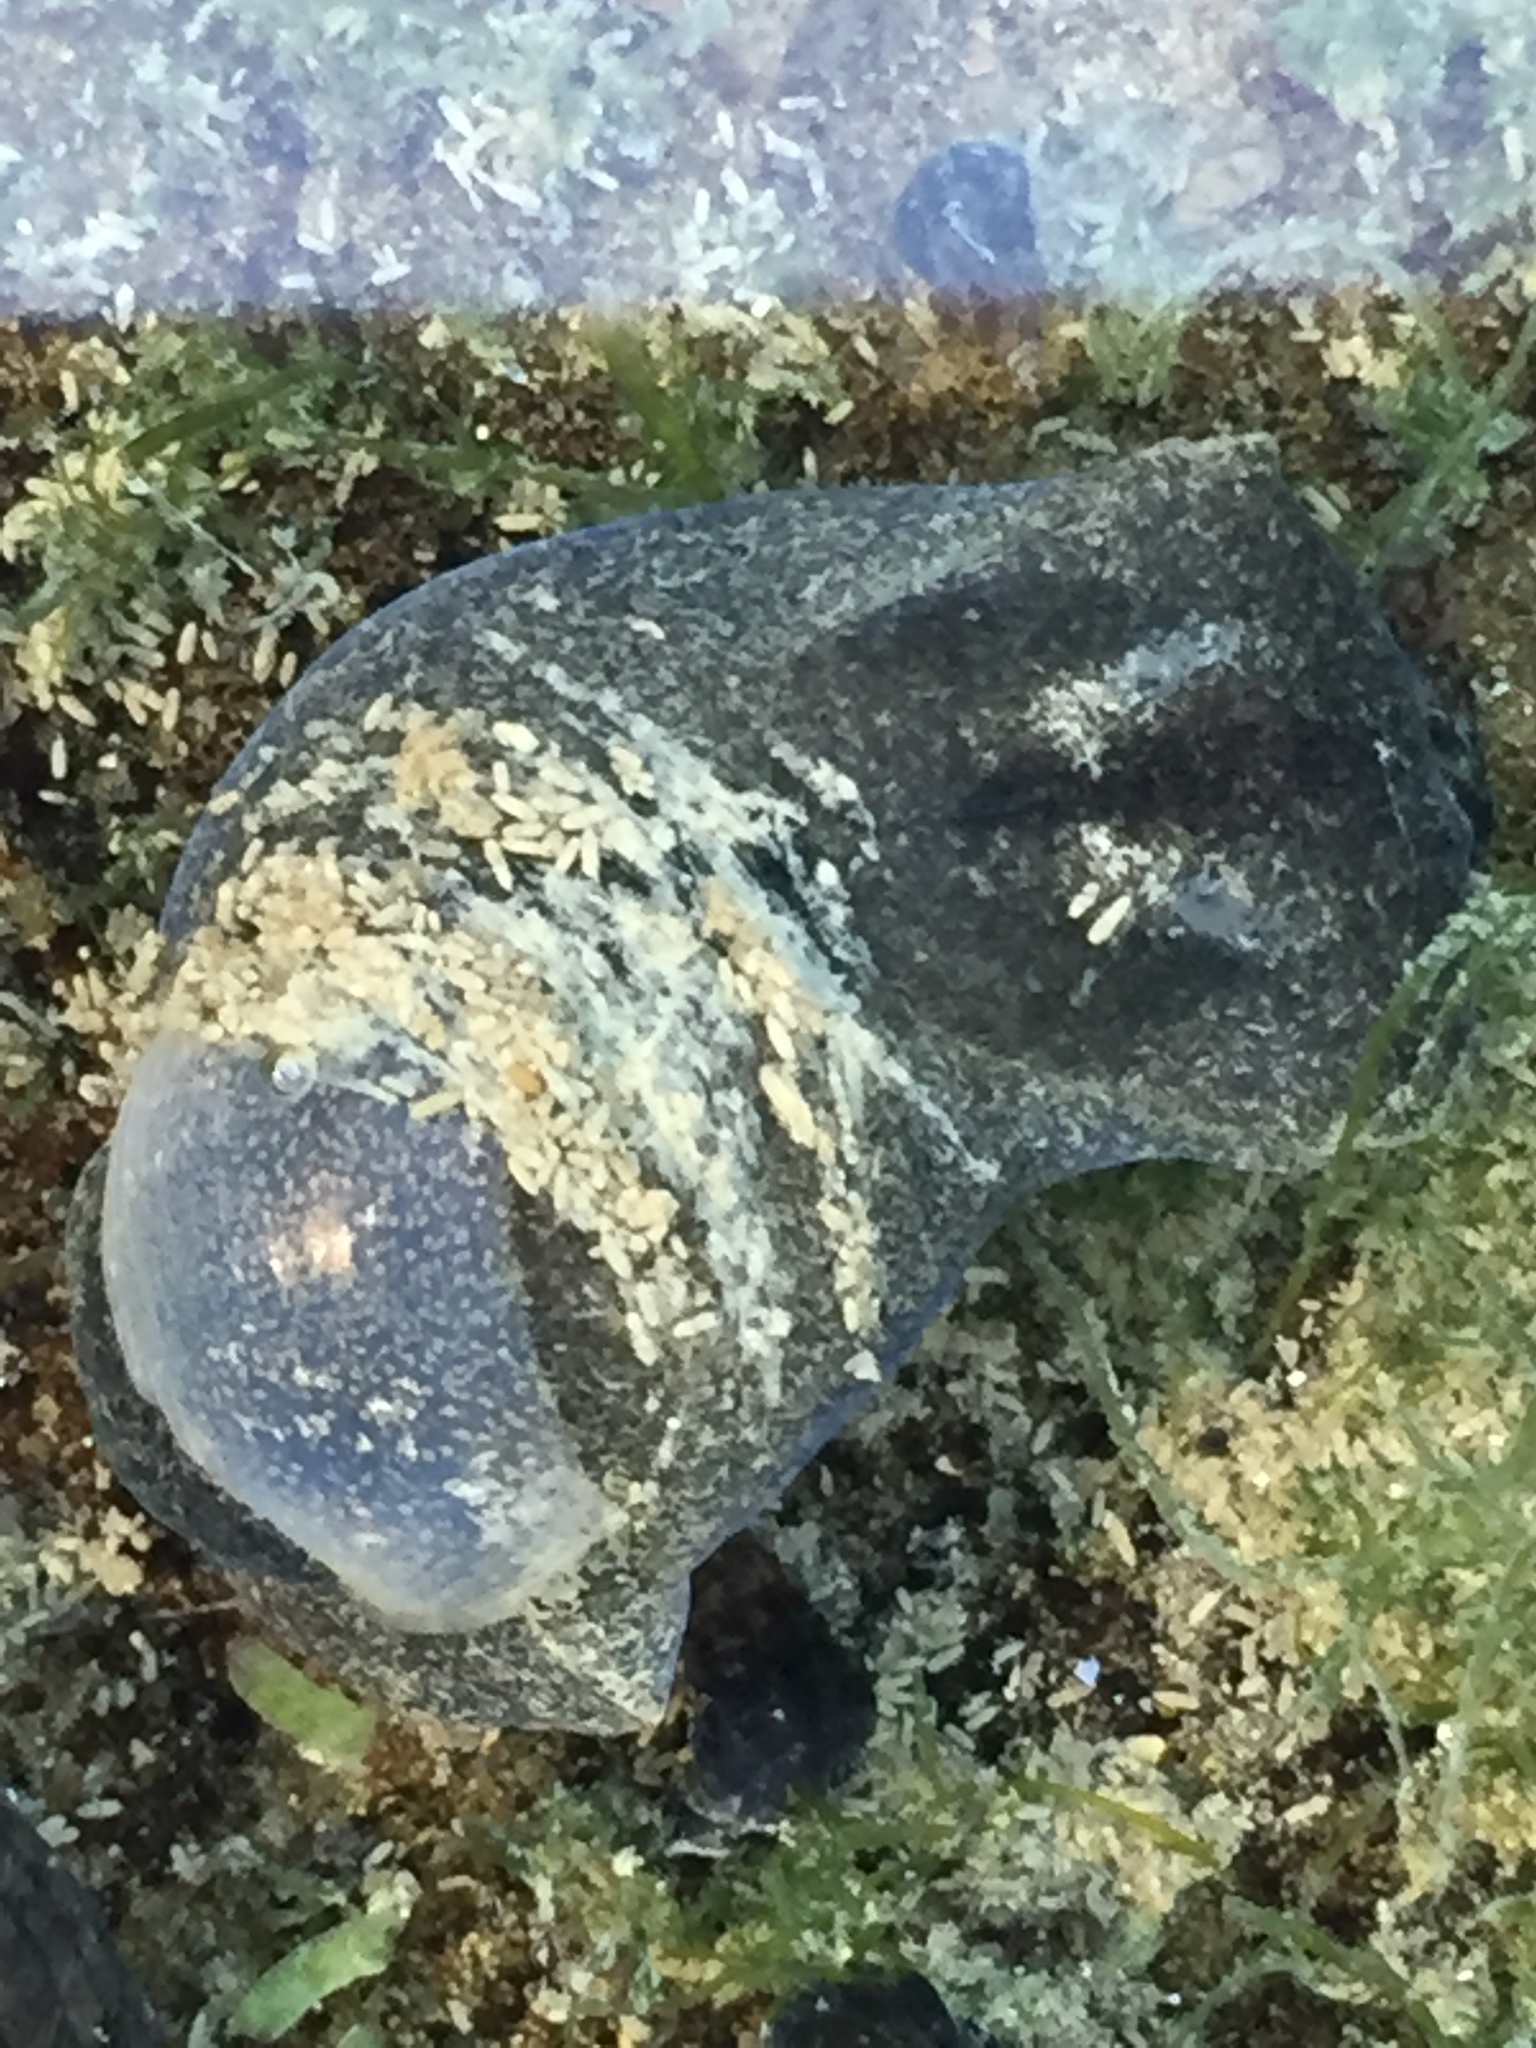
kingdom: Animalia
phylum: Mollusca
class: Gastropoda
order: Cephalaspidea
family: Haminoeidae
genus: Papawera
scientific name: Papawera zelandiae
